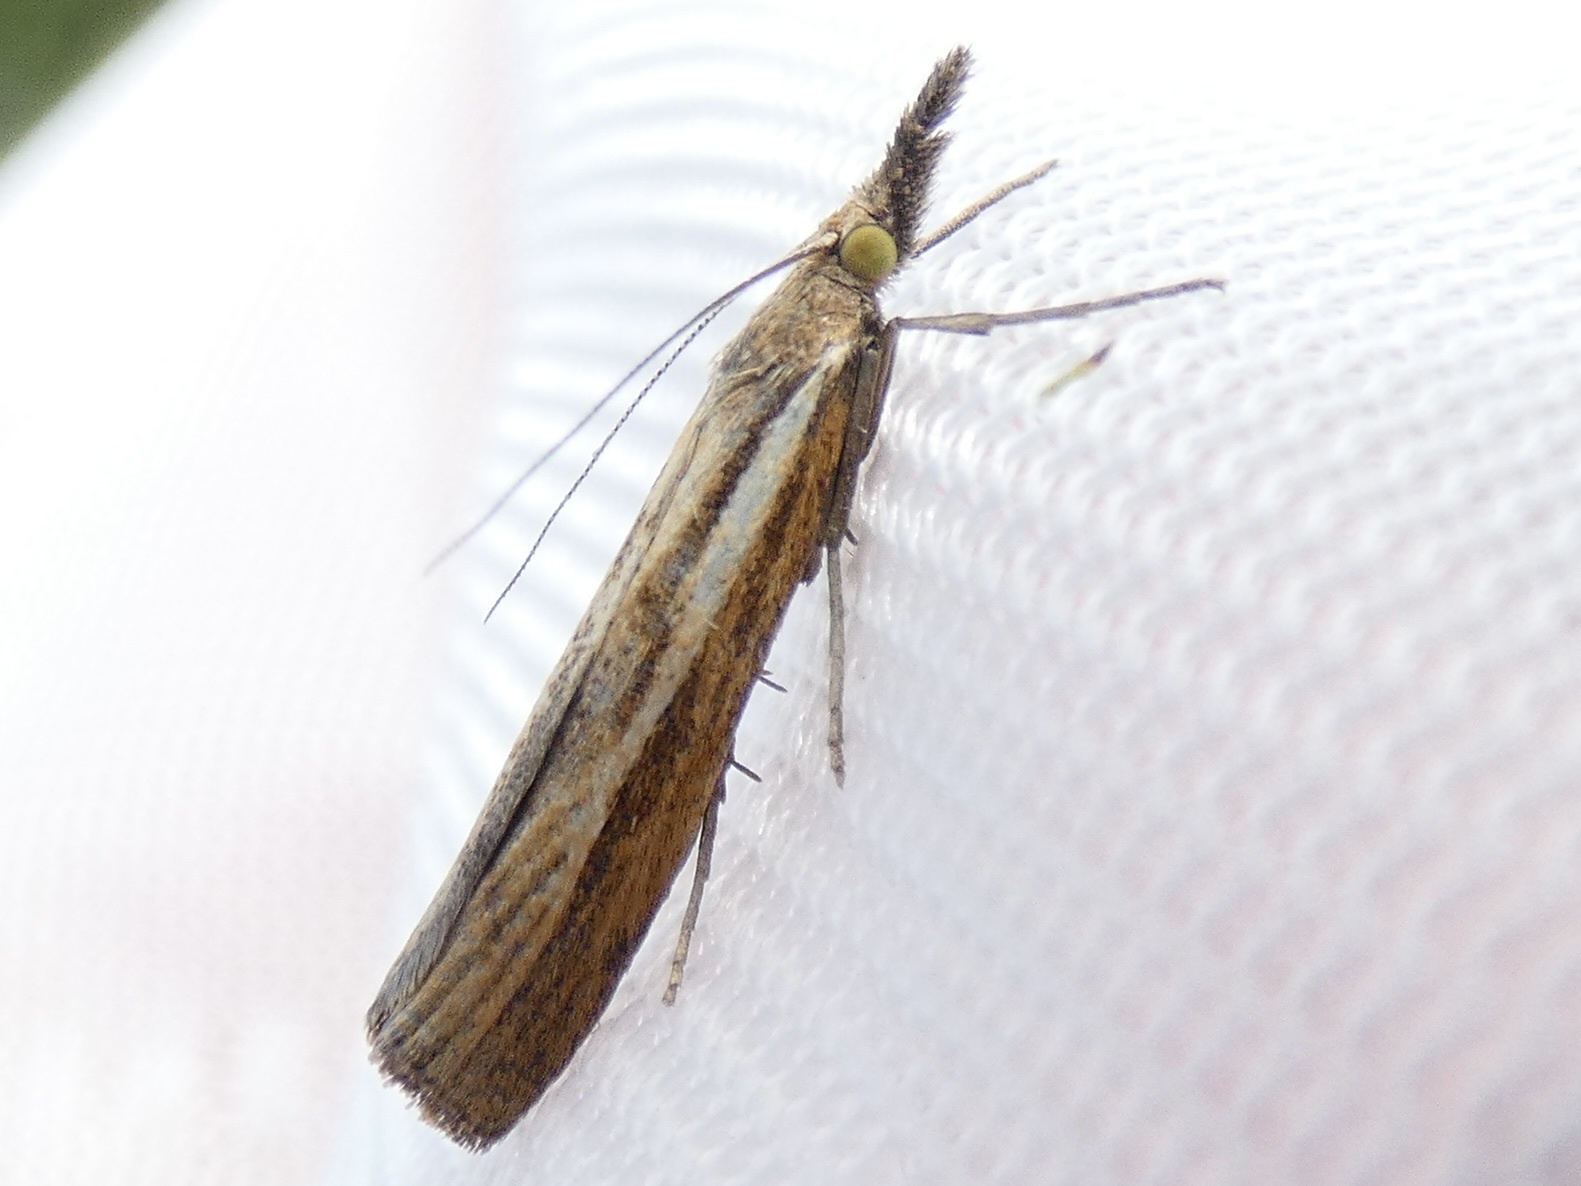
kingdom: Animalia
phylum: Arthropoda
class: Insecta
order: Lepidoptera
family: Crambidae
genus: Agriphila
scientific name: Agriphila tristellus
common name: Common grass-veneer
